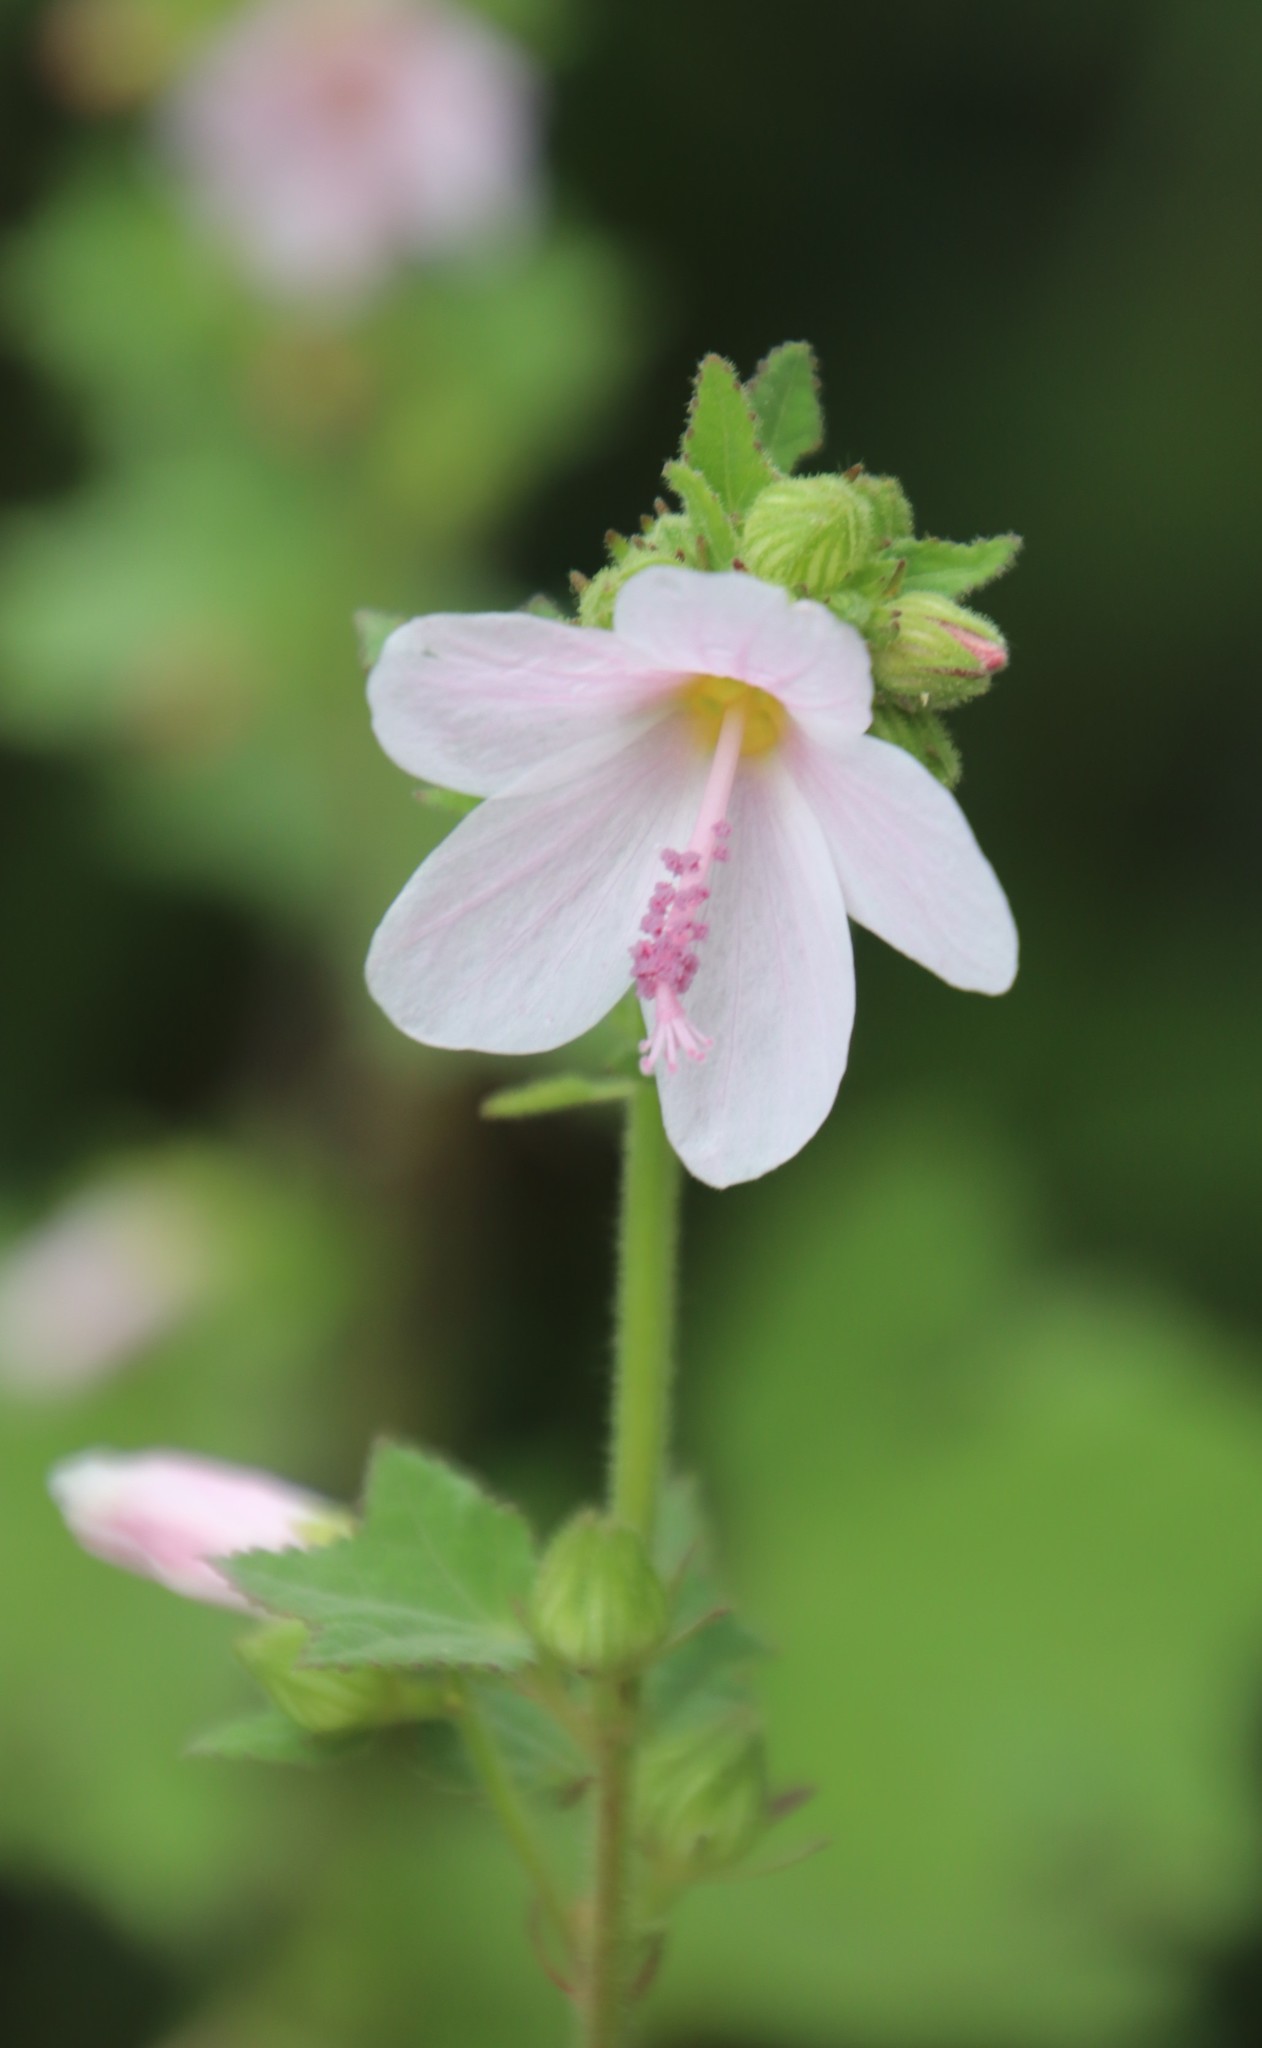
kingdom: Plantae
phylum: Tracheophyta
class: Magnoliopsida
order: Malvales
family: Malvaceae
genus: Pavonia
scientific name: Pavonia columella
